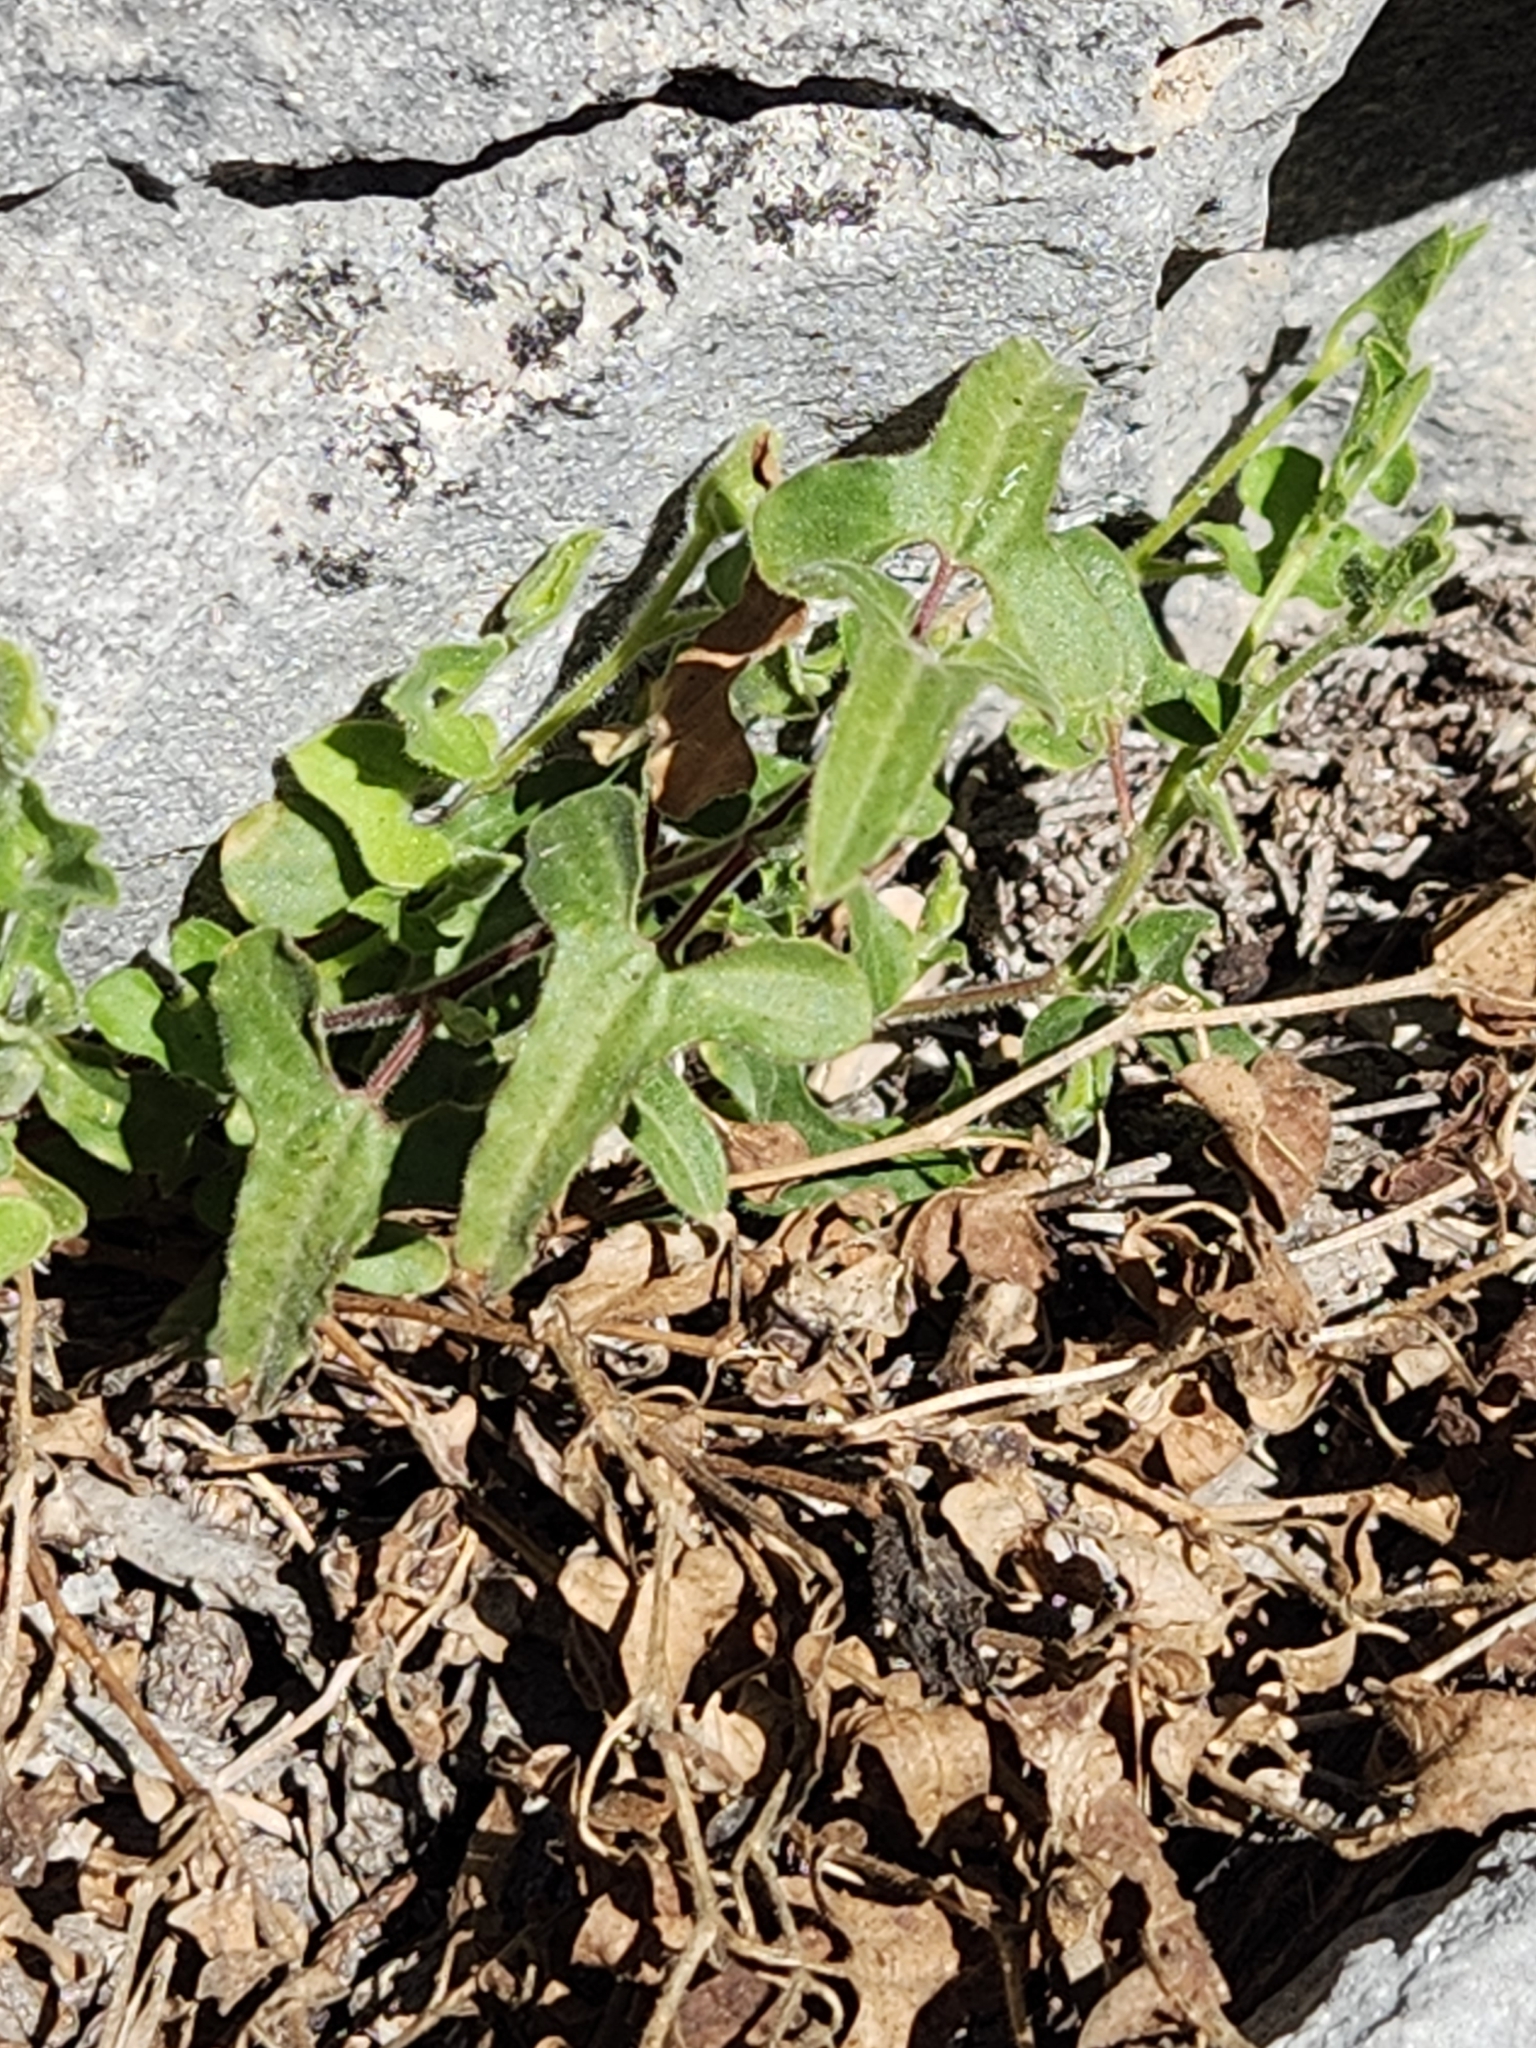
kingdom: Plantae
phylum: Tracheophyta
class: Magnoliopsida
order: Piperales
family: Aristolochiaceae
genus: Aristolochia
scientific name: Aristolochia coryi
